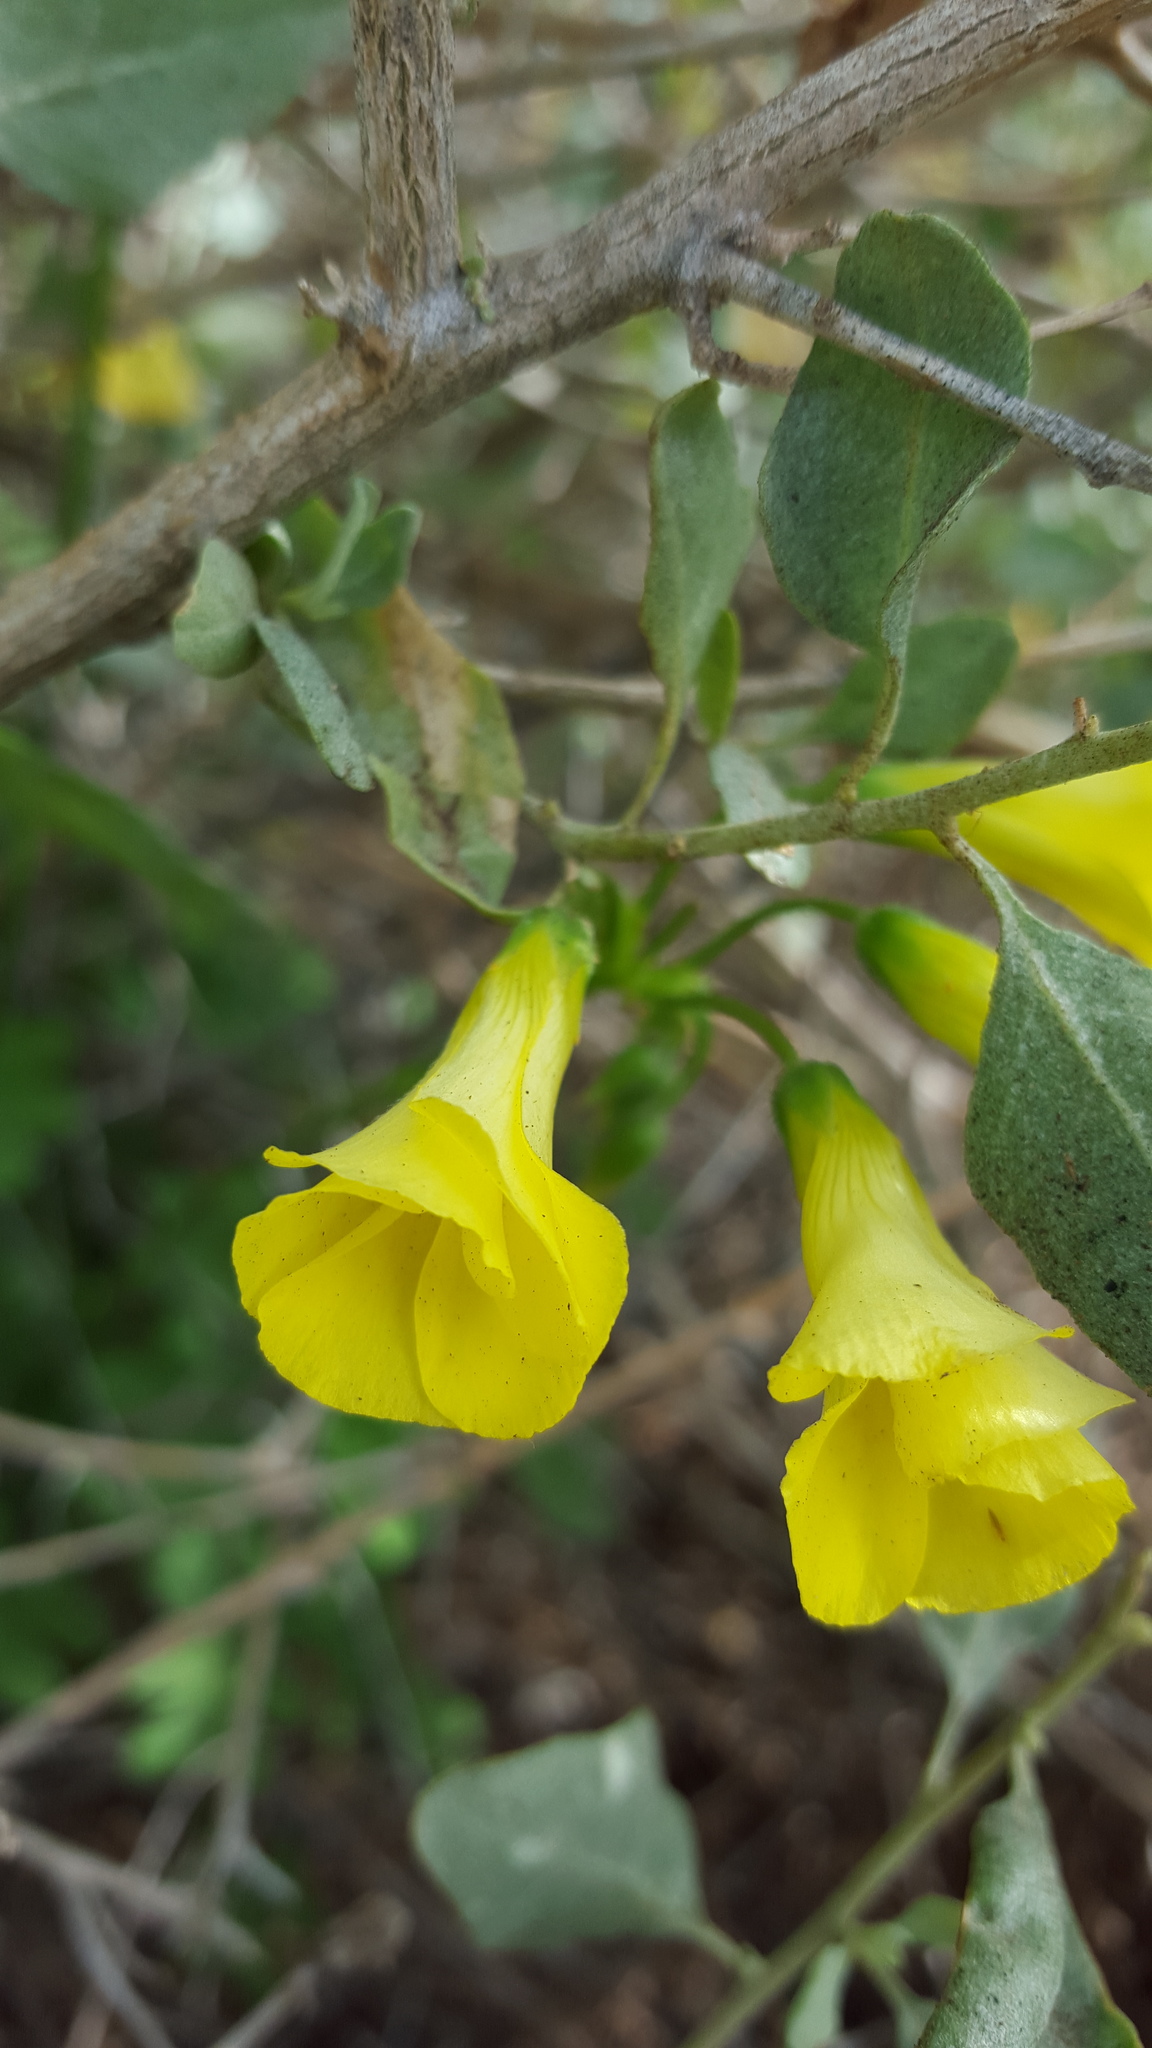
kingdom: Plantae
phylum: Tracheophyta
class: Magnoliopsida
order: Oxalidales
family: Oxalidaceae
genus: Oxalis
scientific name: Oxalis pes-caprae
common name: Bermuda-buttercup
